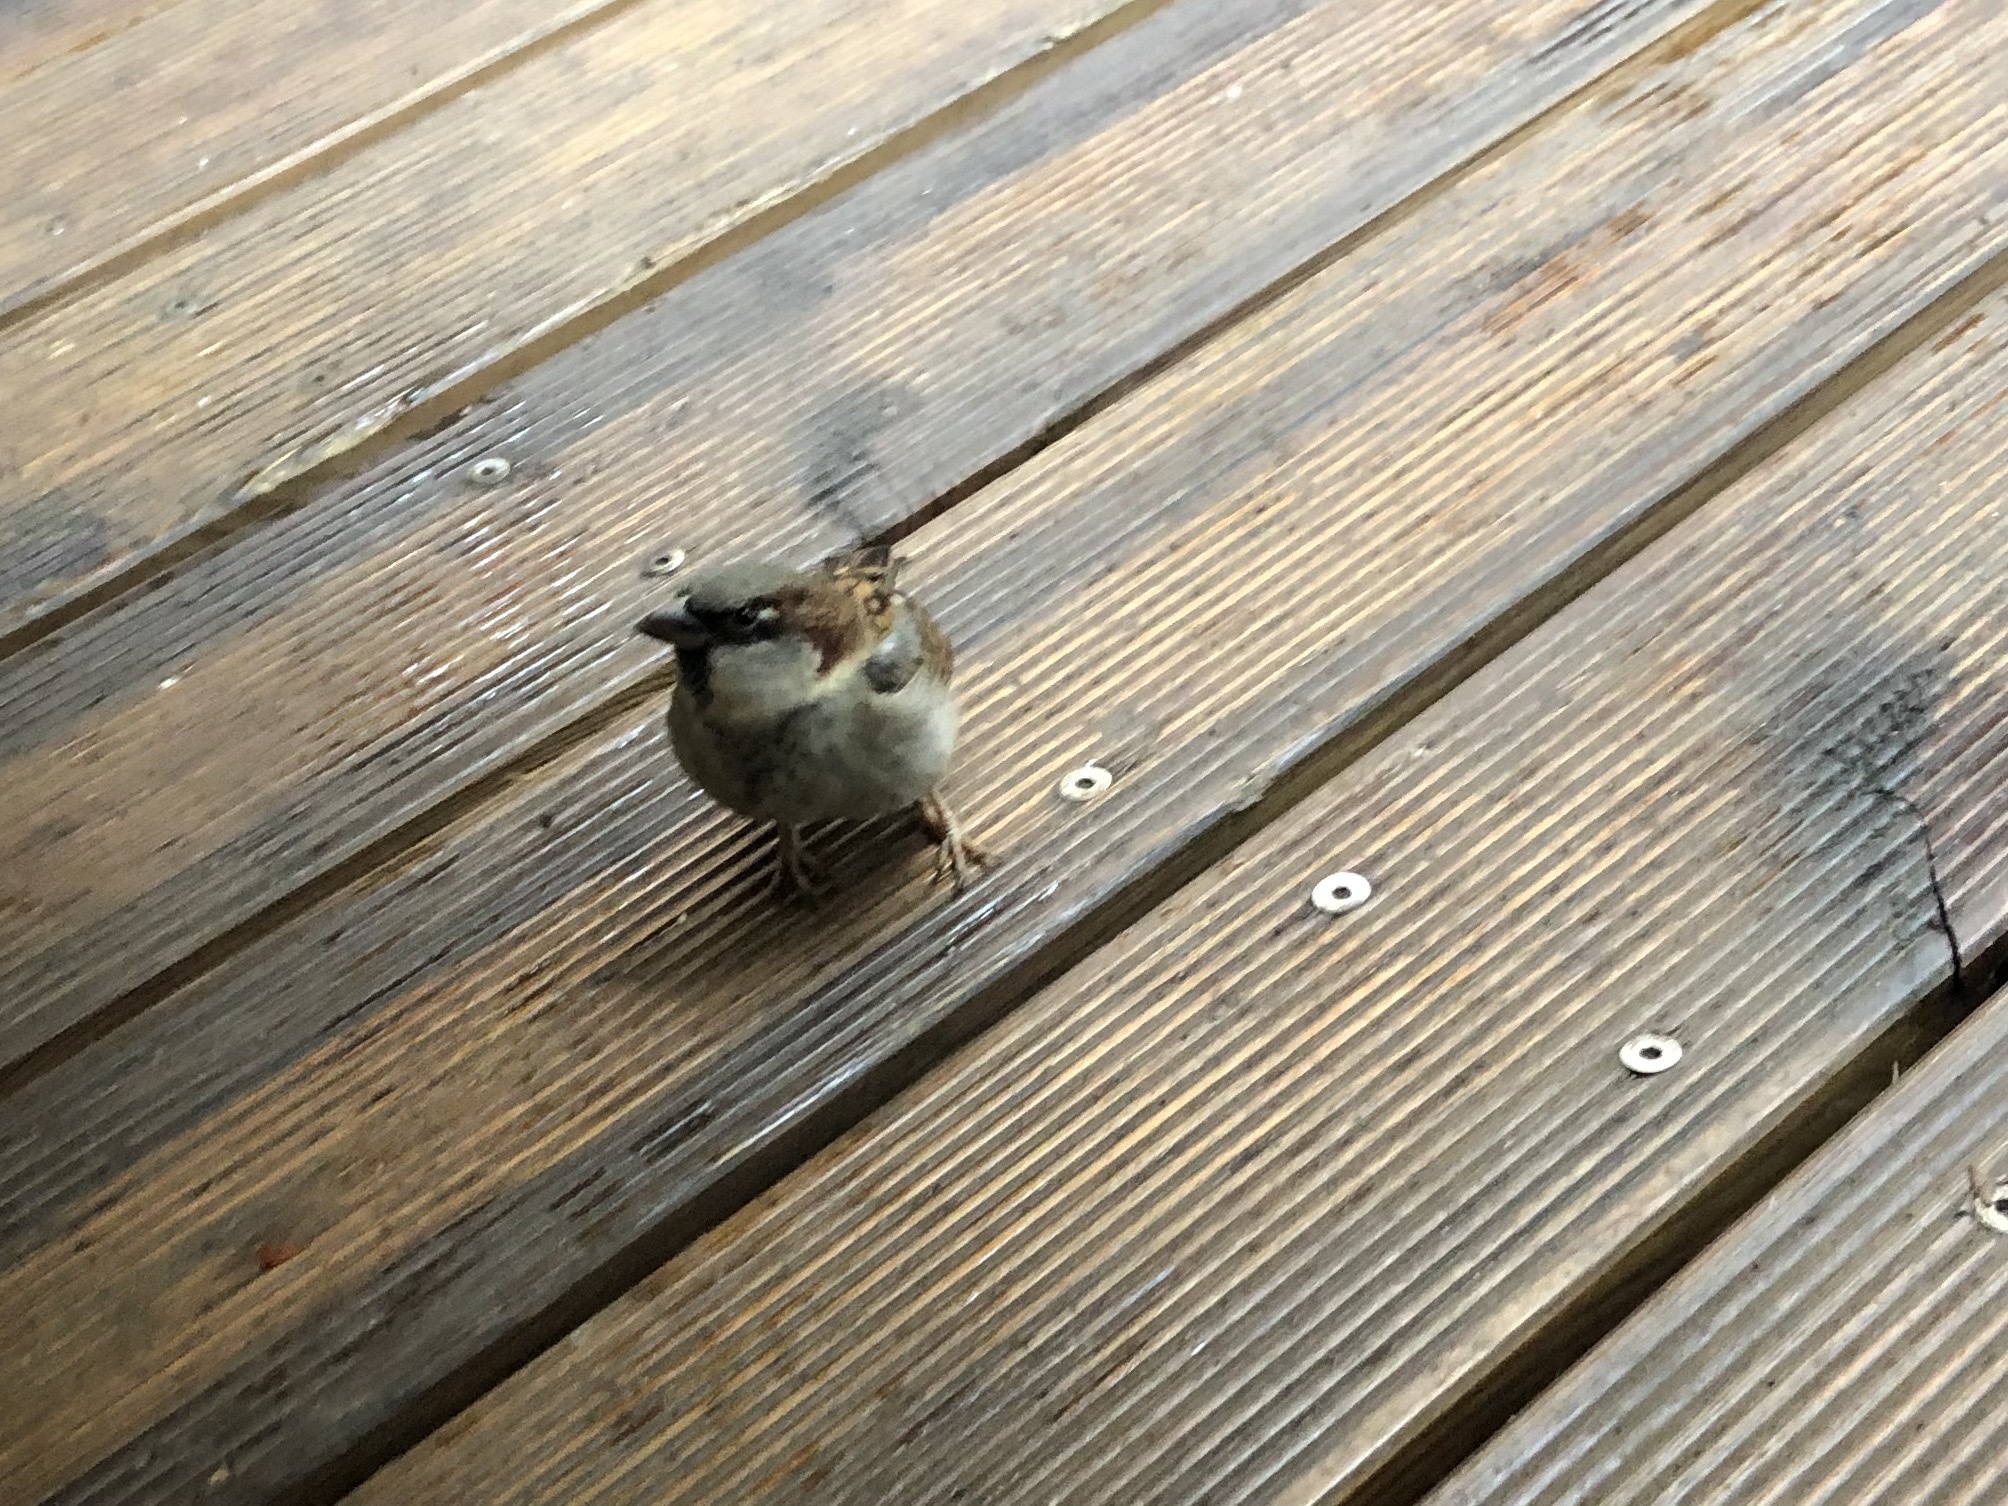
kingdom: Animalia
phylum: Chordata
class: Aves
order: Passeriformes
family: Passeridae
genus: Passer
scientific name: Passer domesticus
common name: House sparrow
